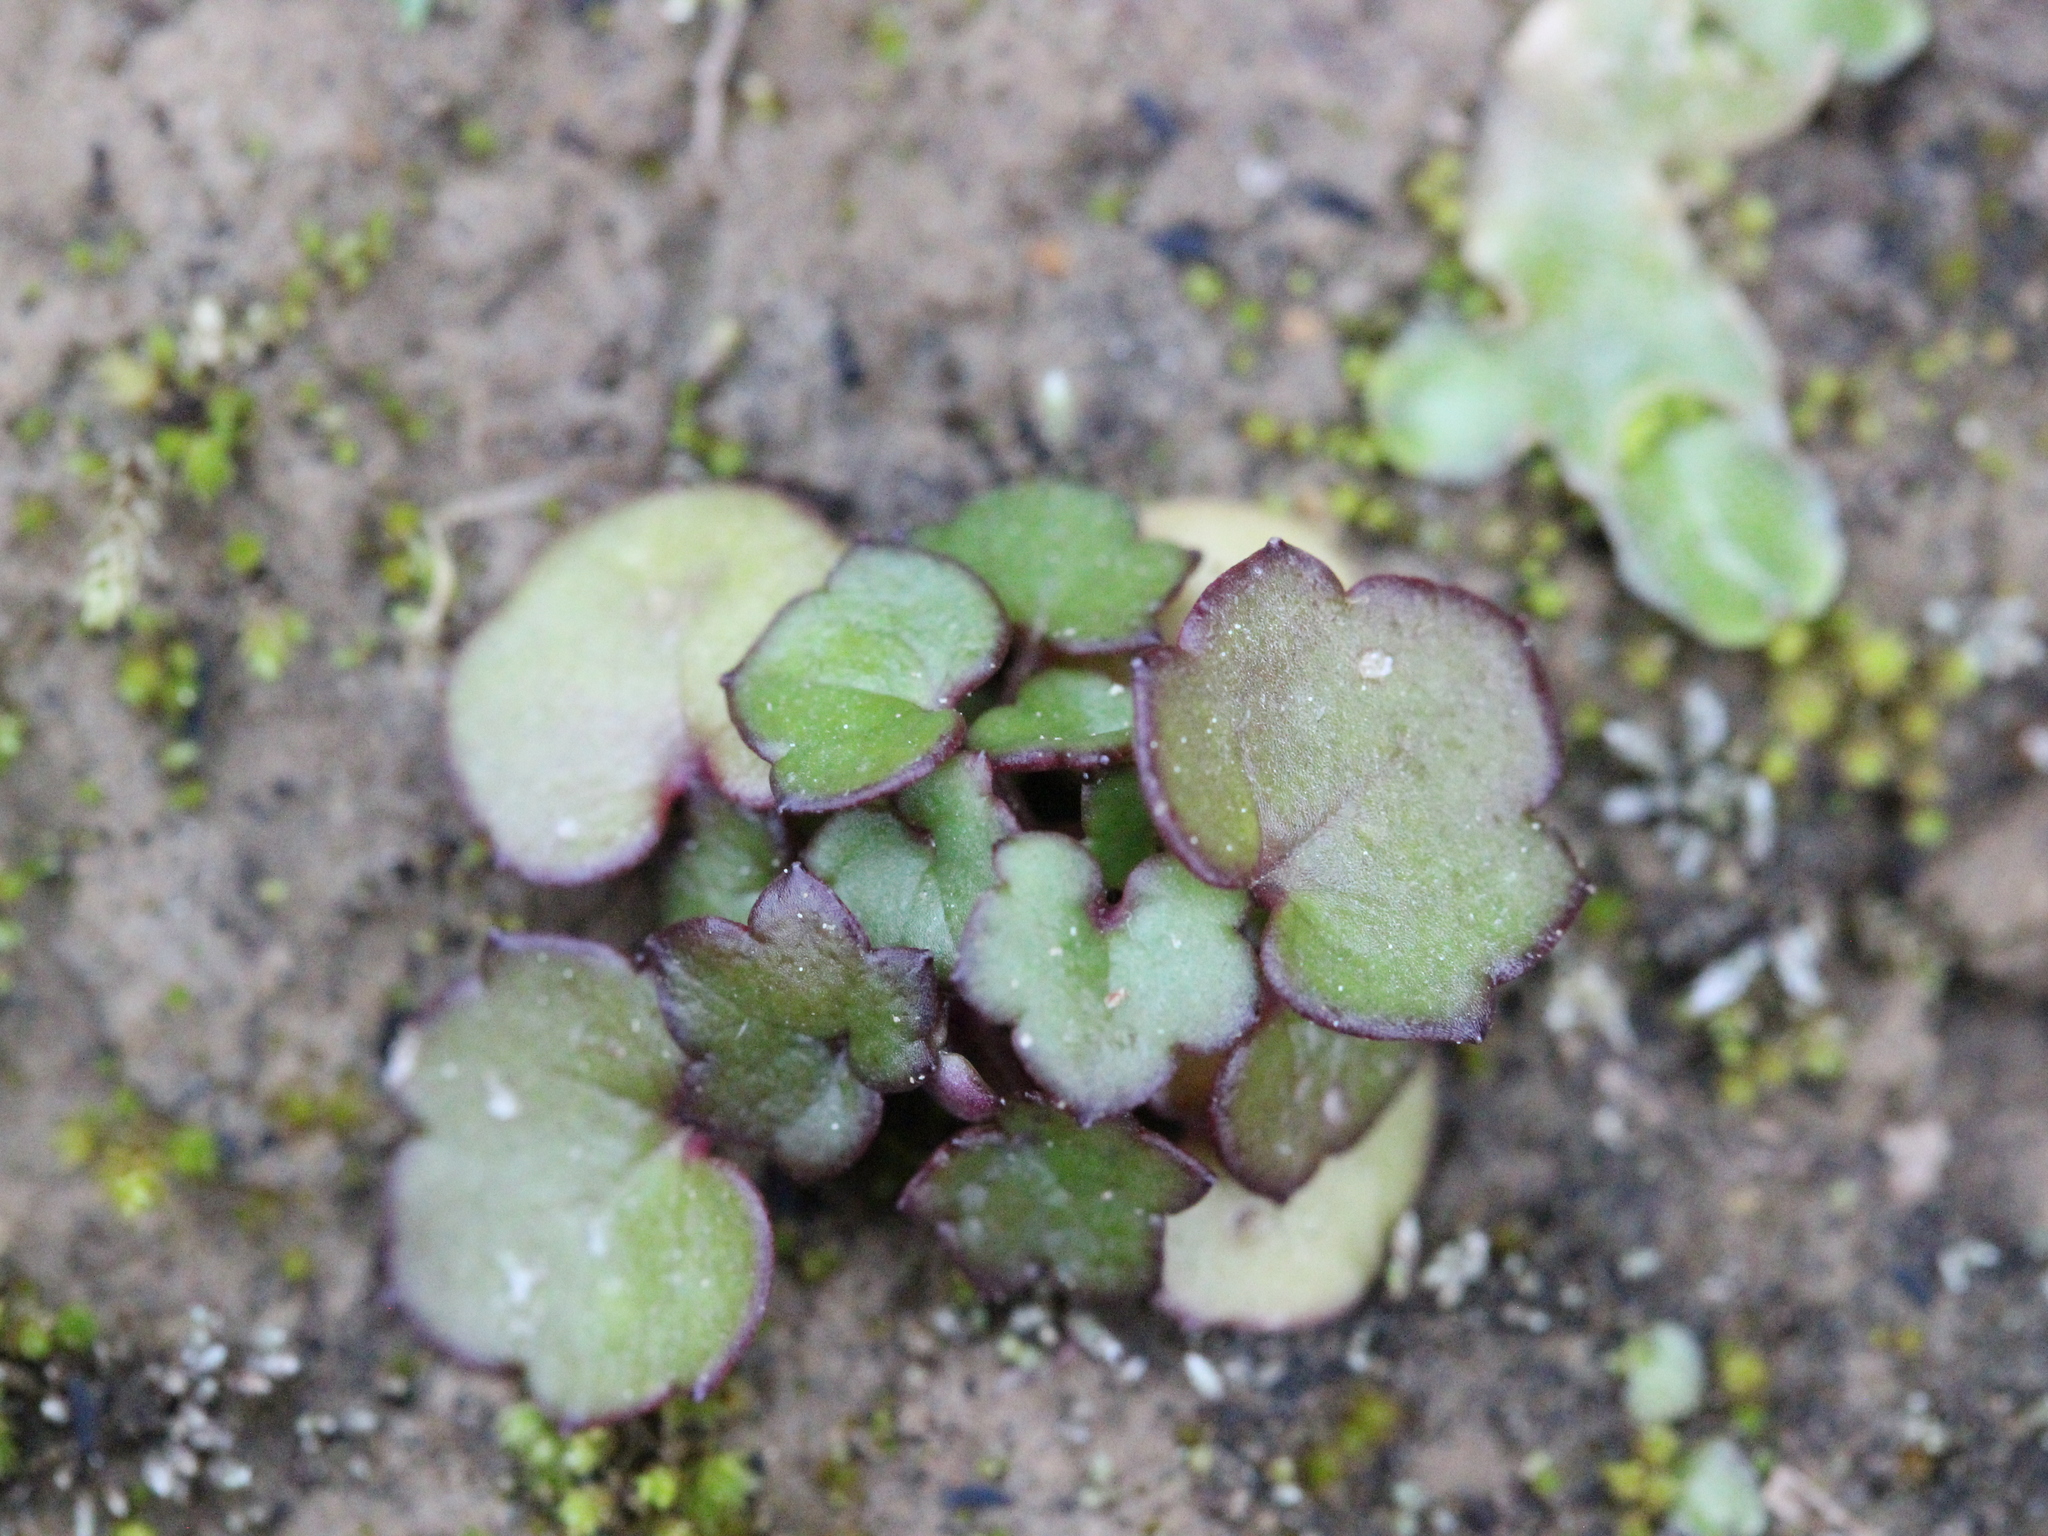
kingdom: Plantae
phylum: Tracheophyta
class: Magnoliopsida
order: Lamiales
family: Plantaginaceae
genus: Cymbalaria
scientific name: Cymbalaria muralis
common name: Ivy-leaved toadflax
